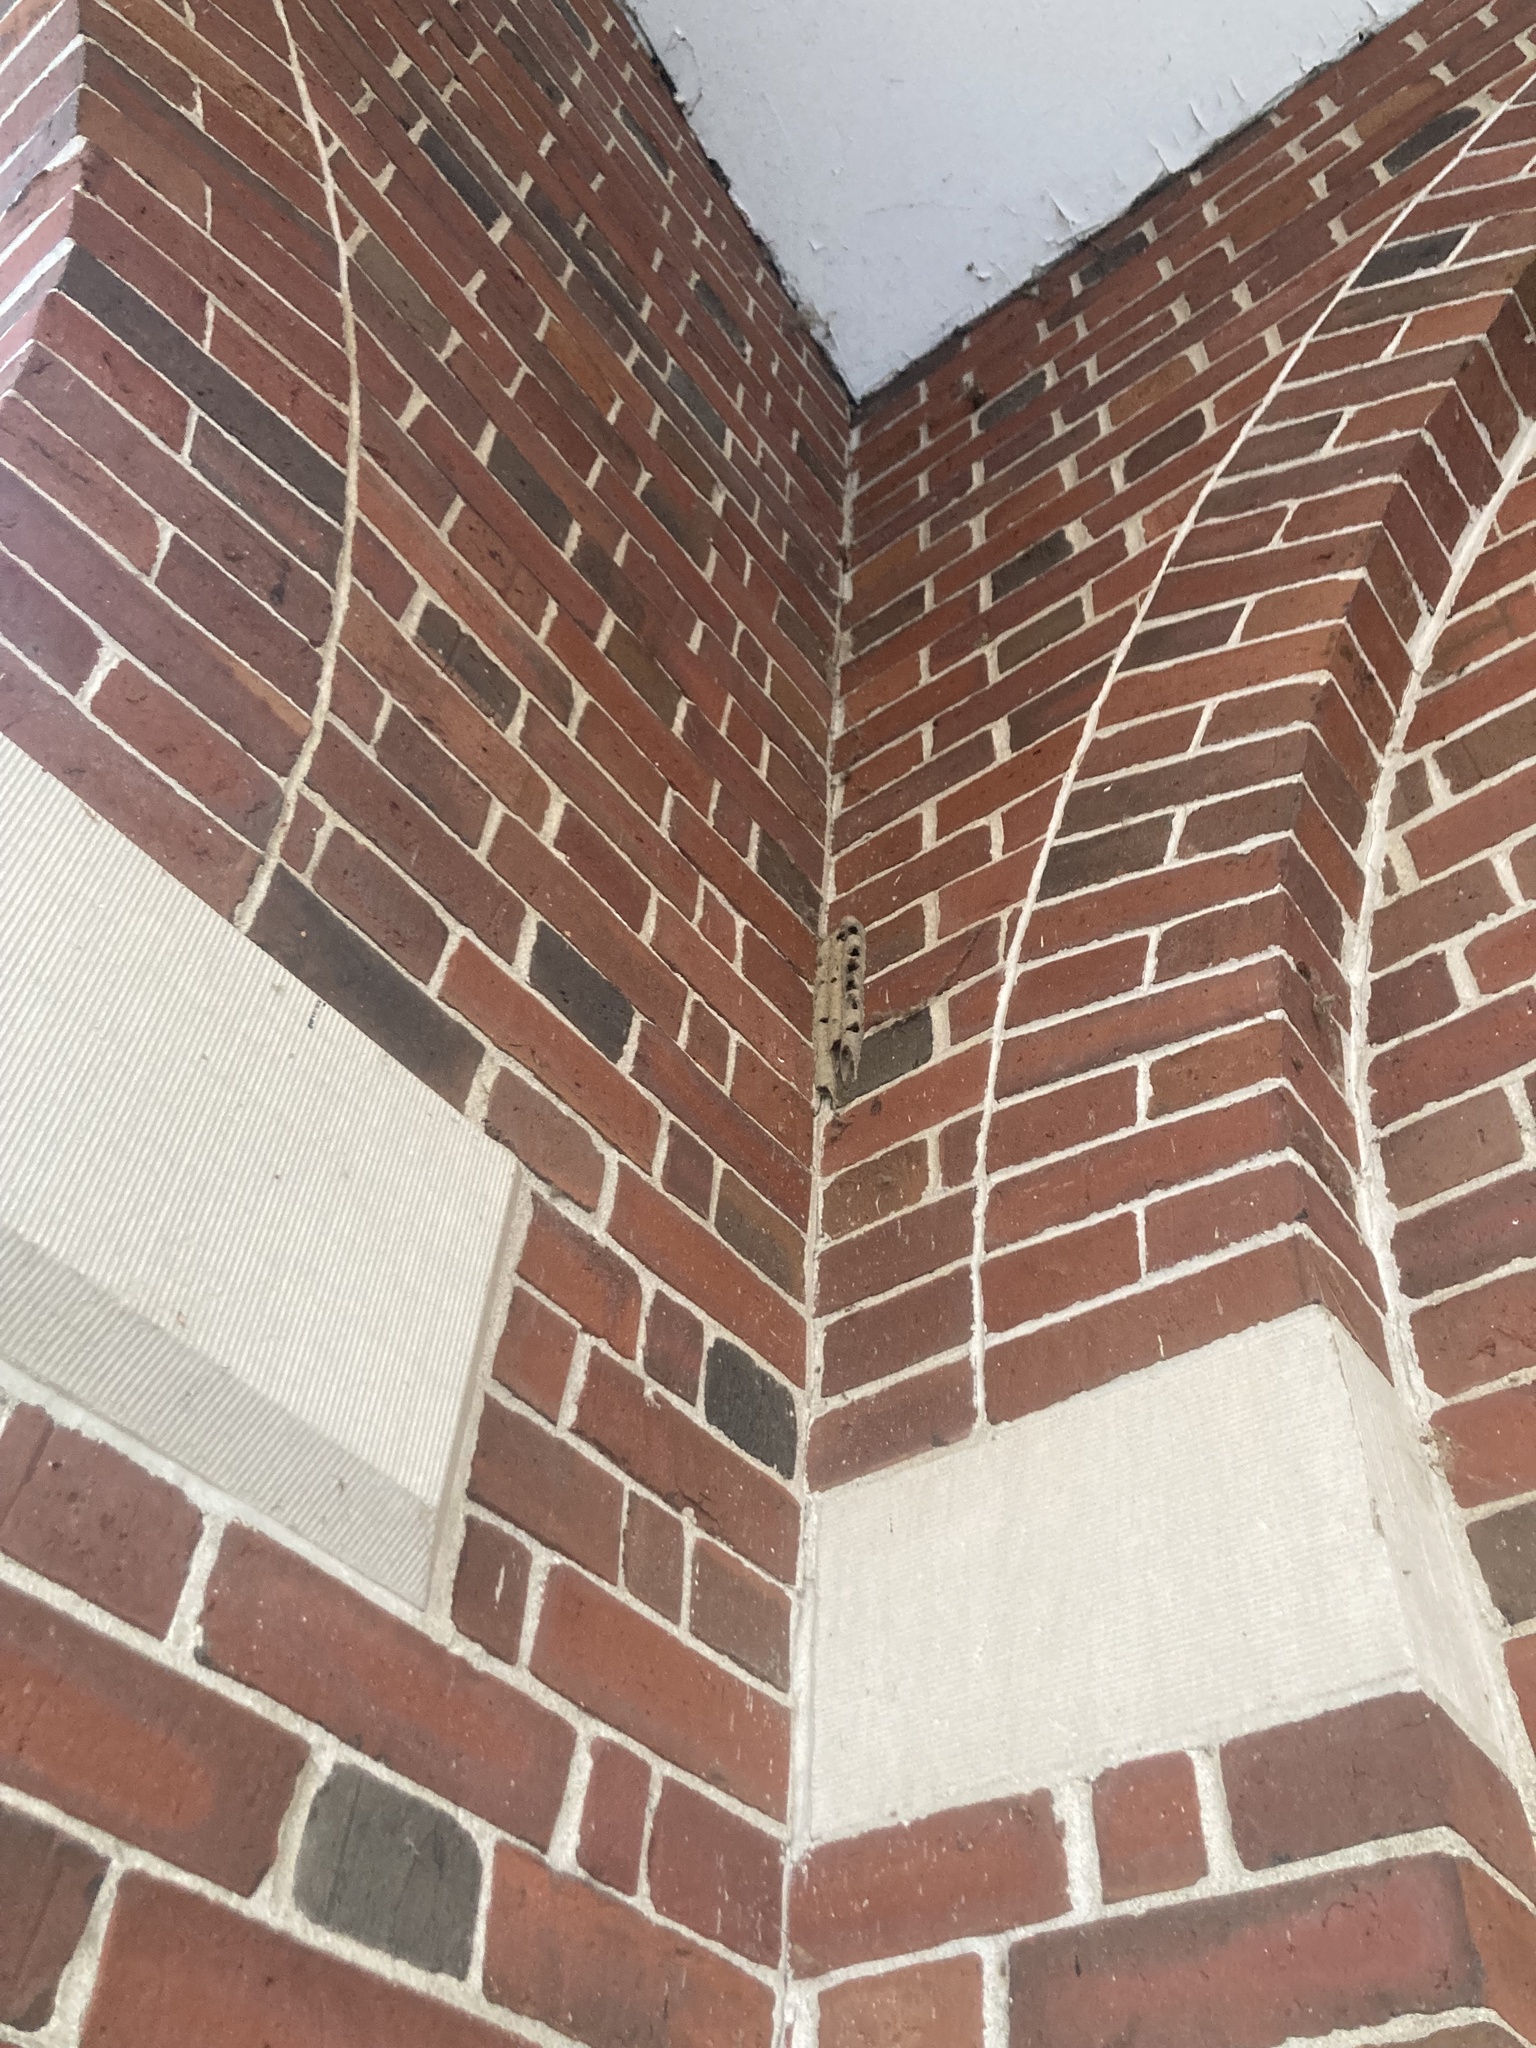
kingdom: Animalia
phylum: Arthropoda
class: Insecta
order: Hymenoptera
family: Crabronidae
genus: Trypoxylon
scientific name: Trypoxylon politum
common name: Organ-pipe mud-dauber wasp
